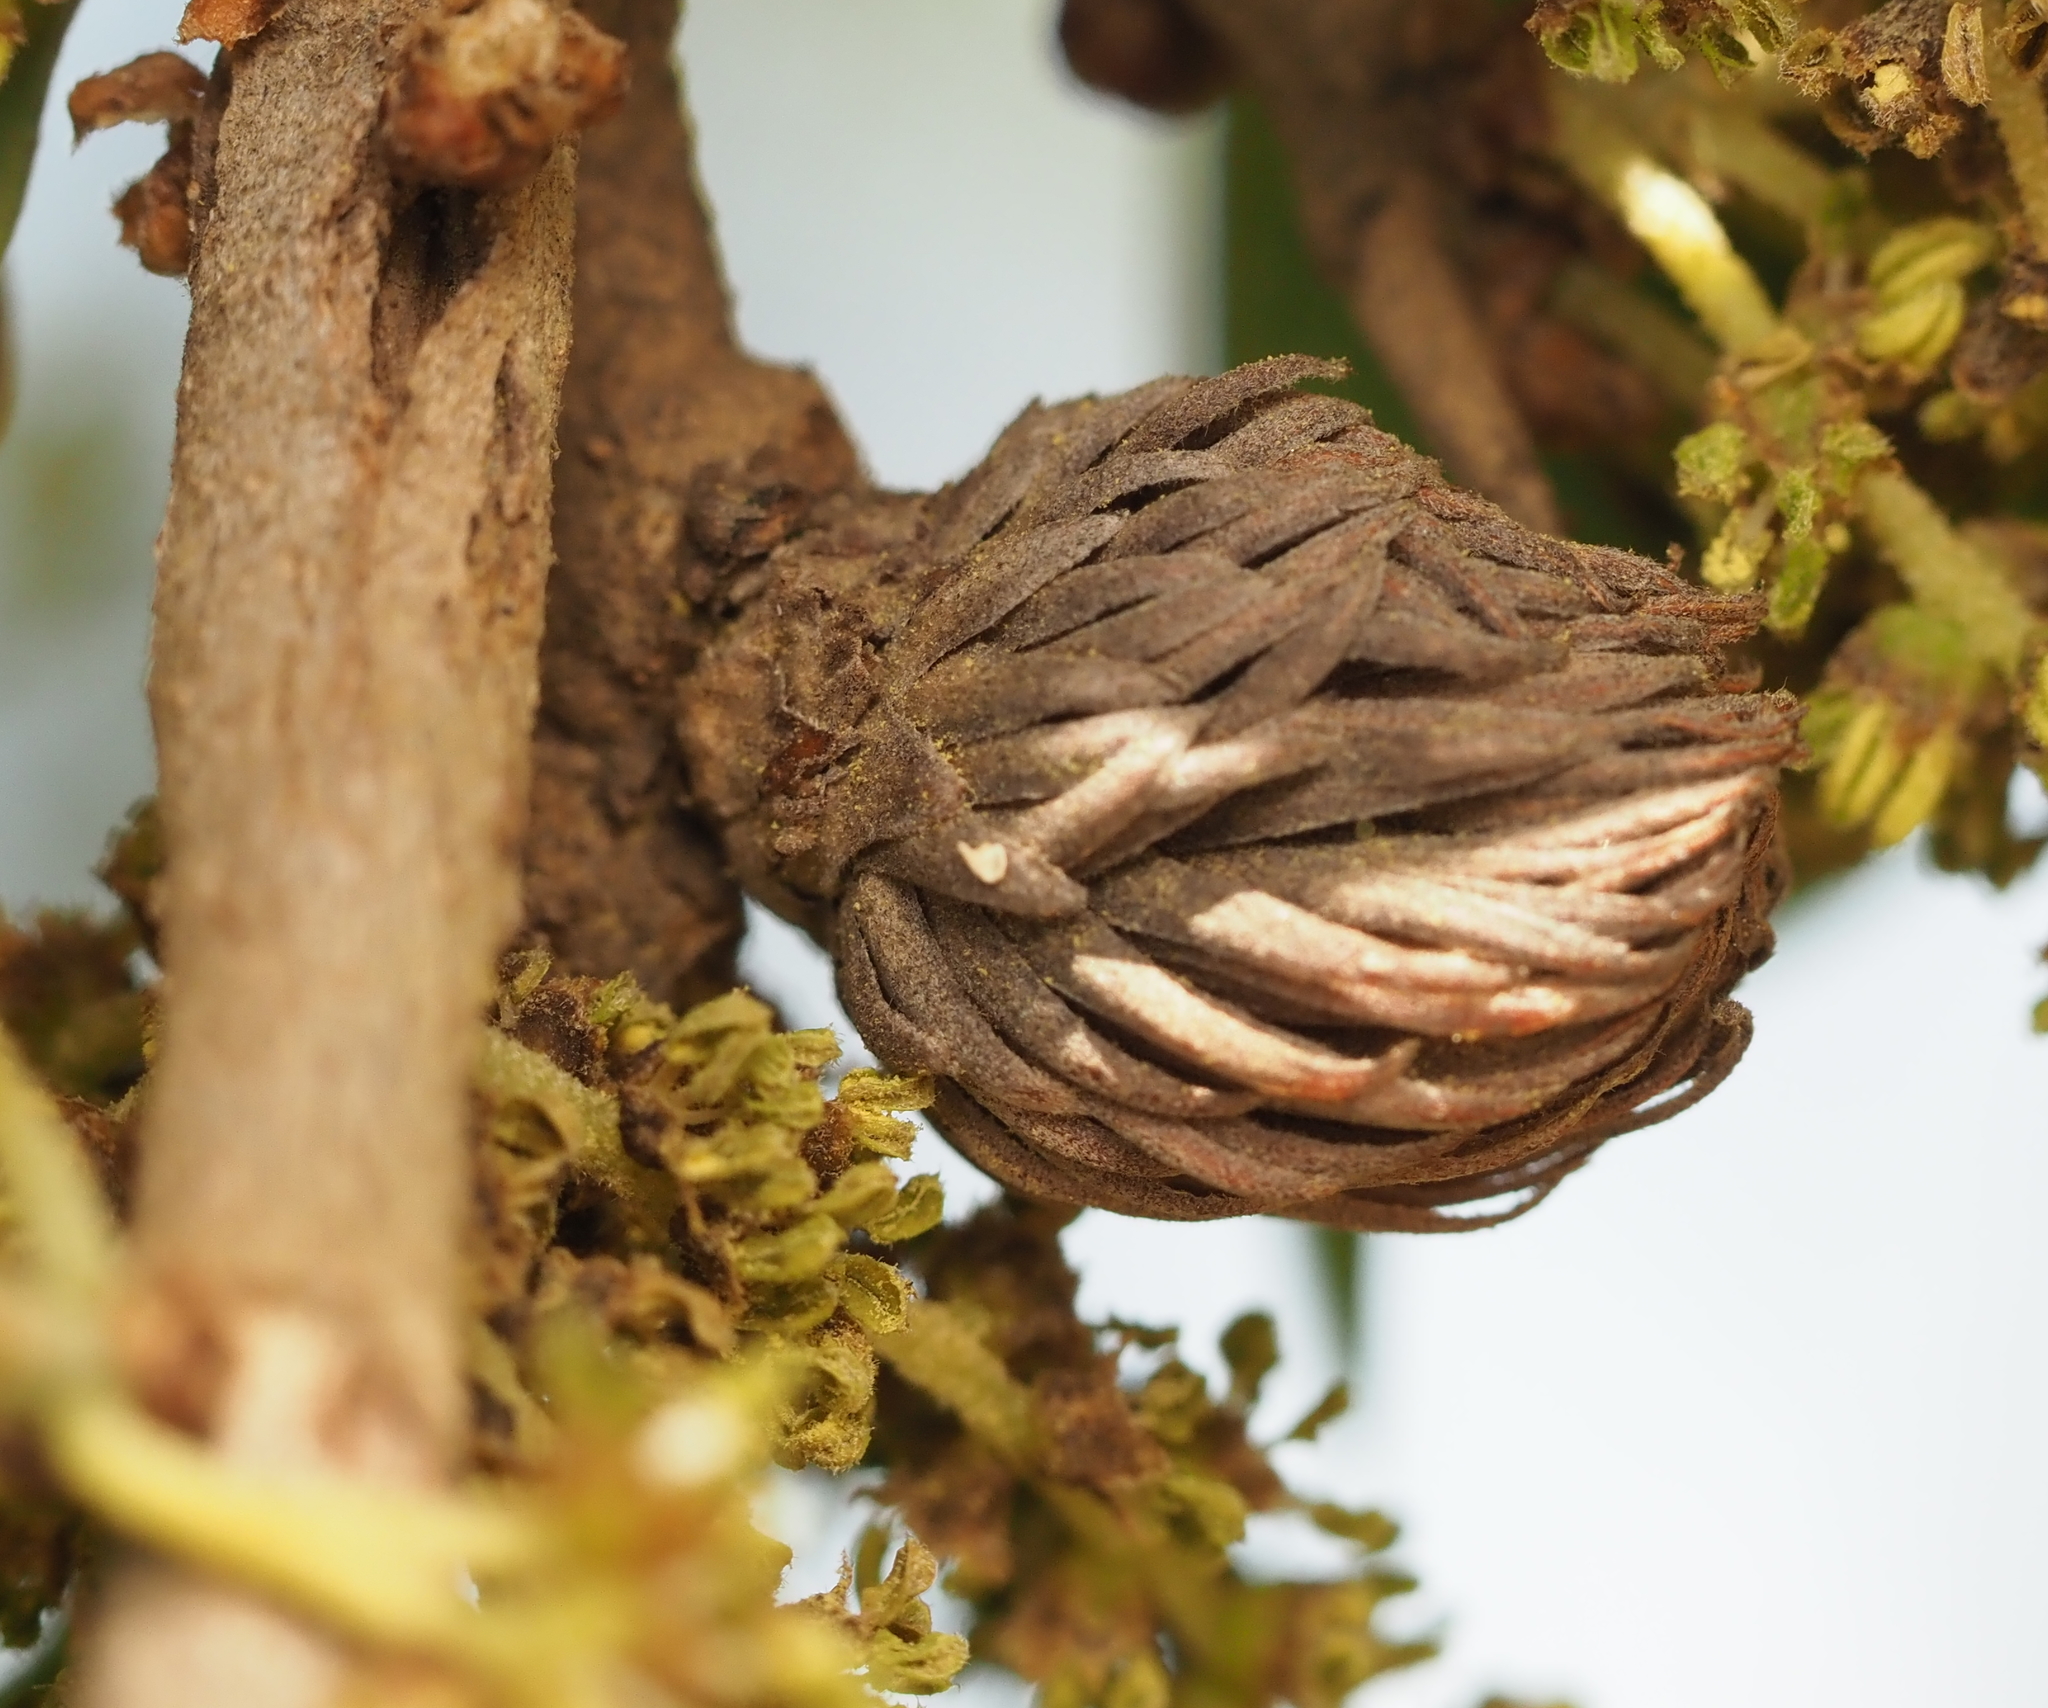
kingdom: Animalia
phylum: Arthropoda
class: Insecta
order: Hymenoptera
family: Cynipidae
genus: Andricus
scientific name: Andricus quercusfoliatus
